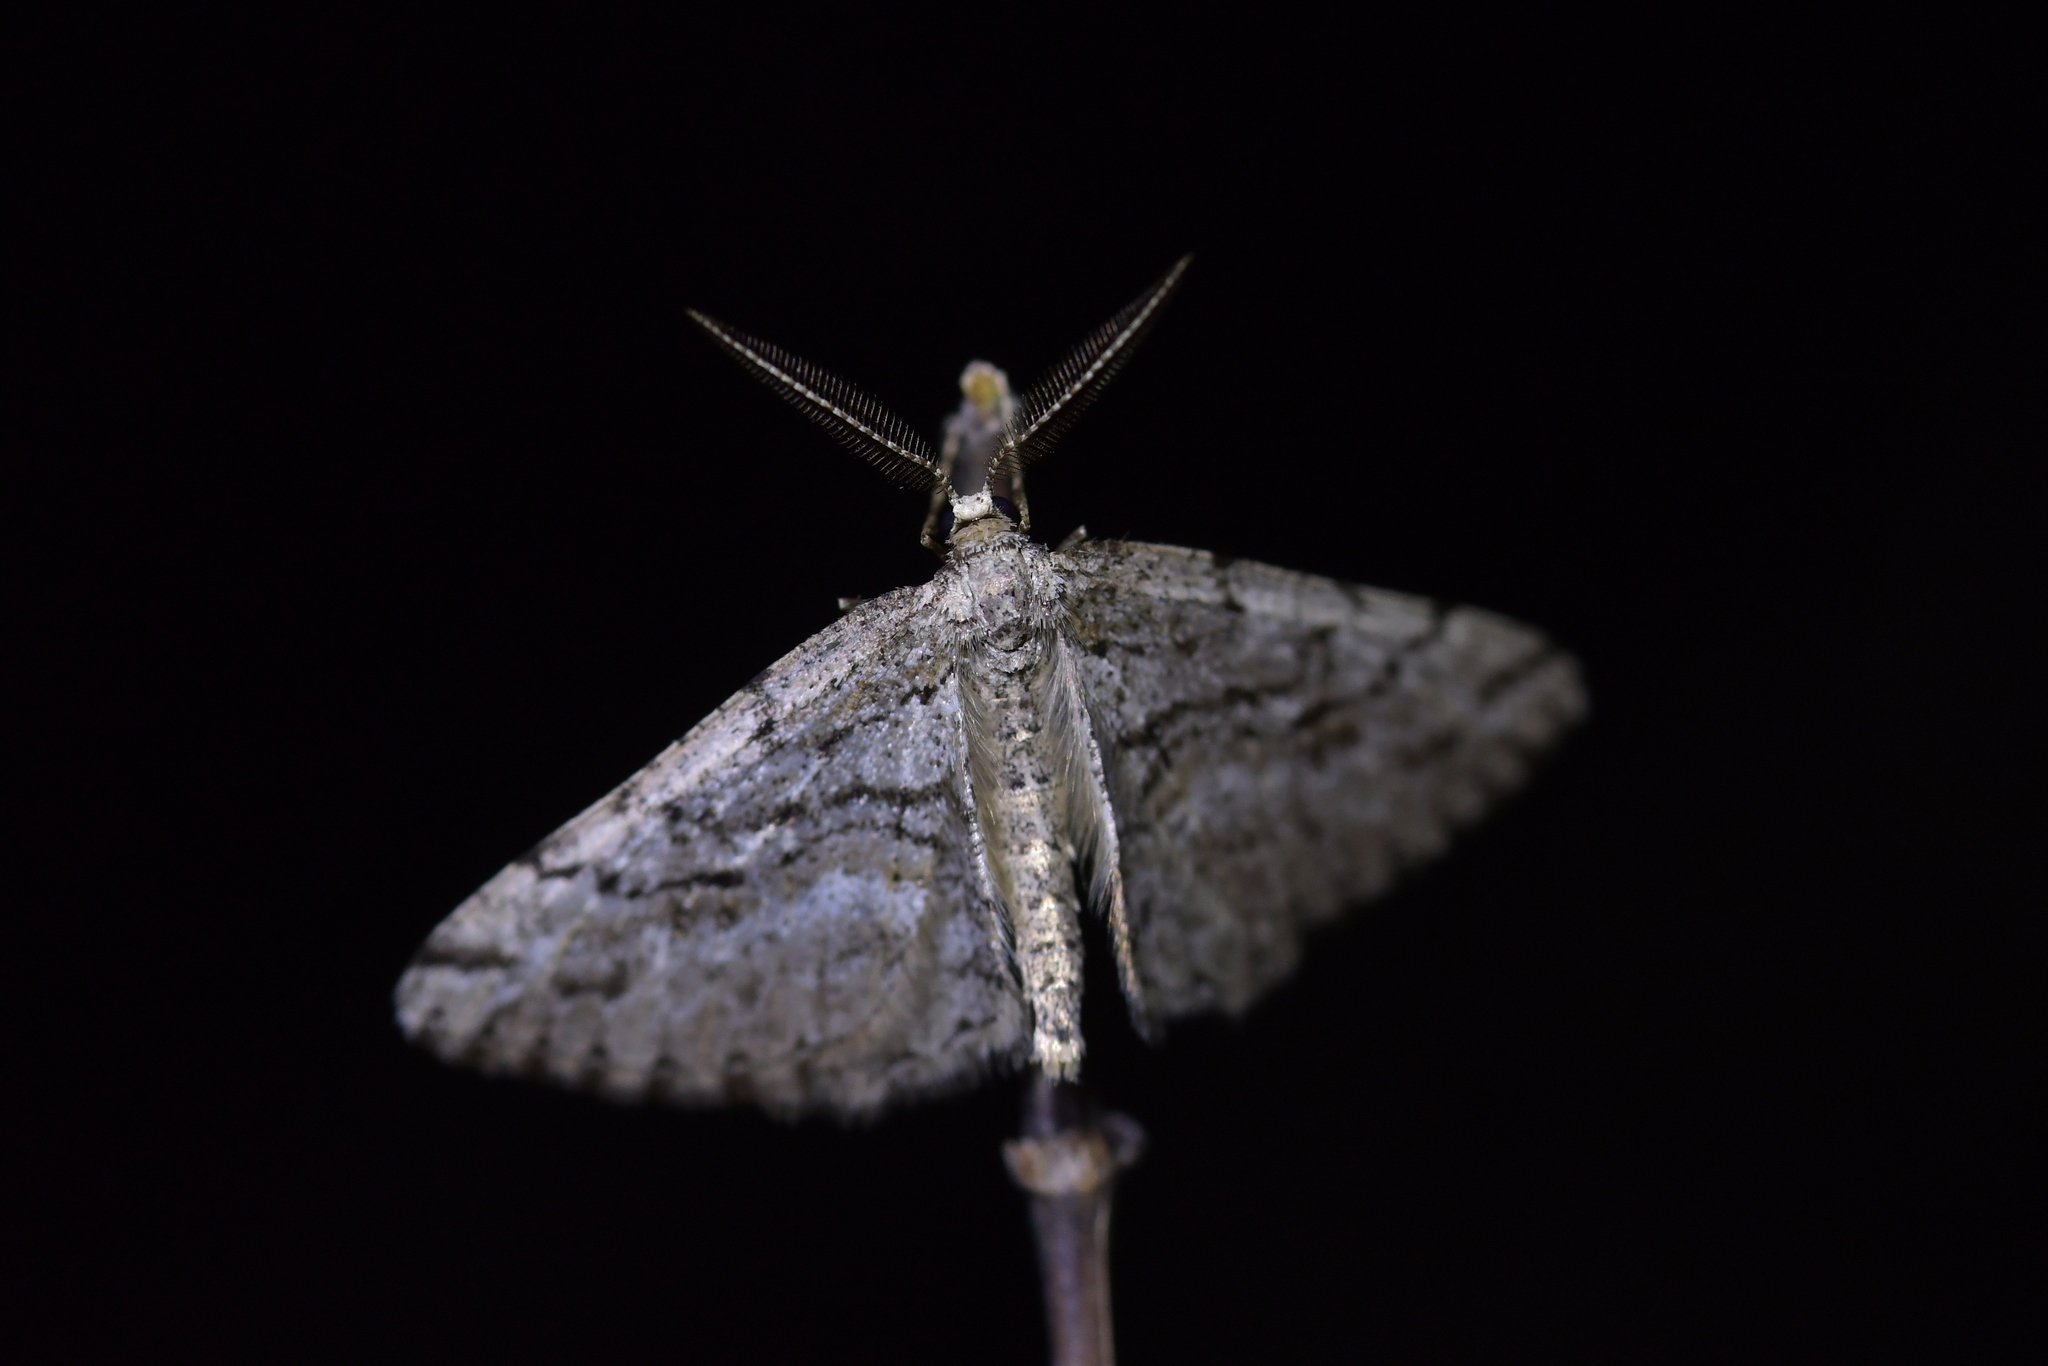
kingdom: Animalia
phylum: Arthropoda
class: Insecta
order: Lepidoptera
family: Geometridae
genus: Zermizinga
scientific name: Zermizinga indocilisaria
